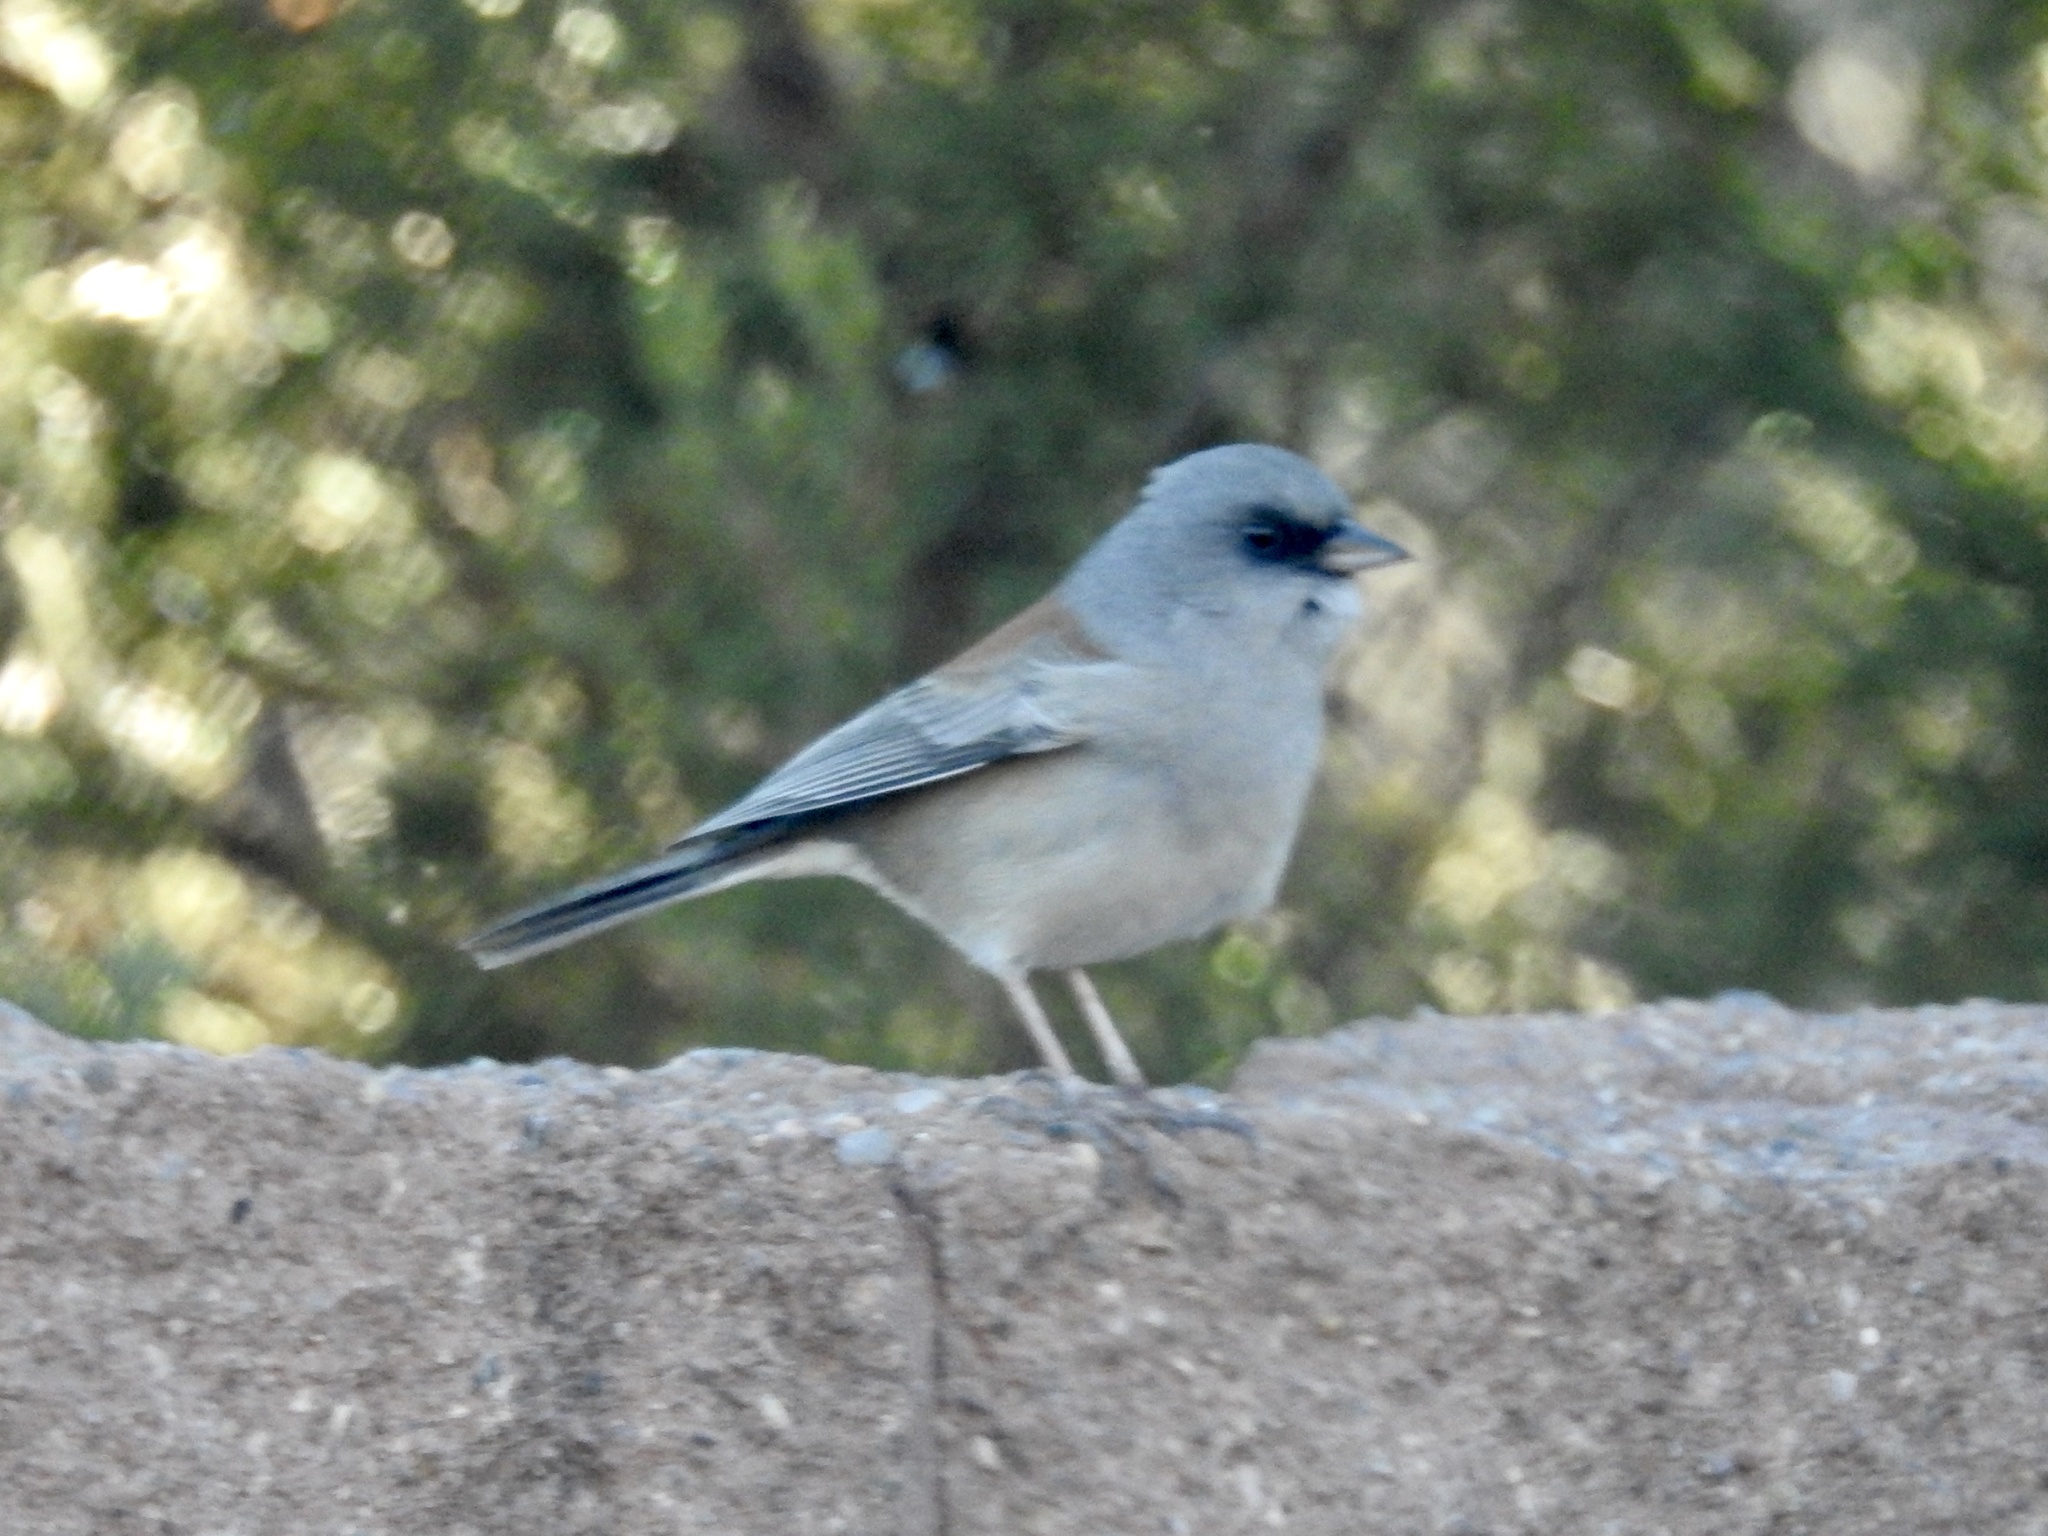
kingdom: Animalia
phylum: Chordata
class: Aves
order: Passeriformes
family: Passerellidae
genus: Junco
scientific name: Junco hyemalis
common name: Dark-eyed junco
